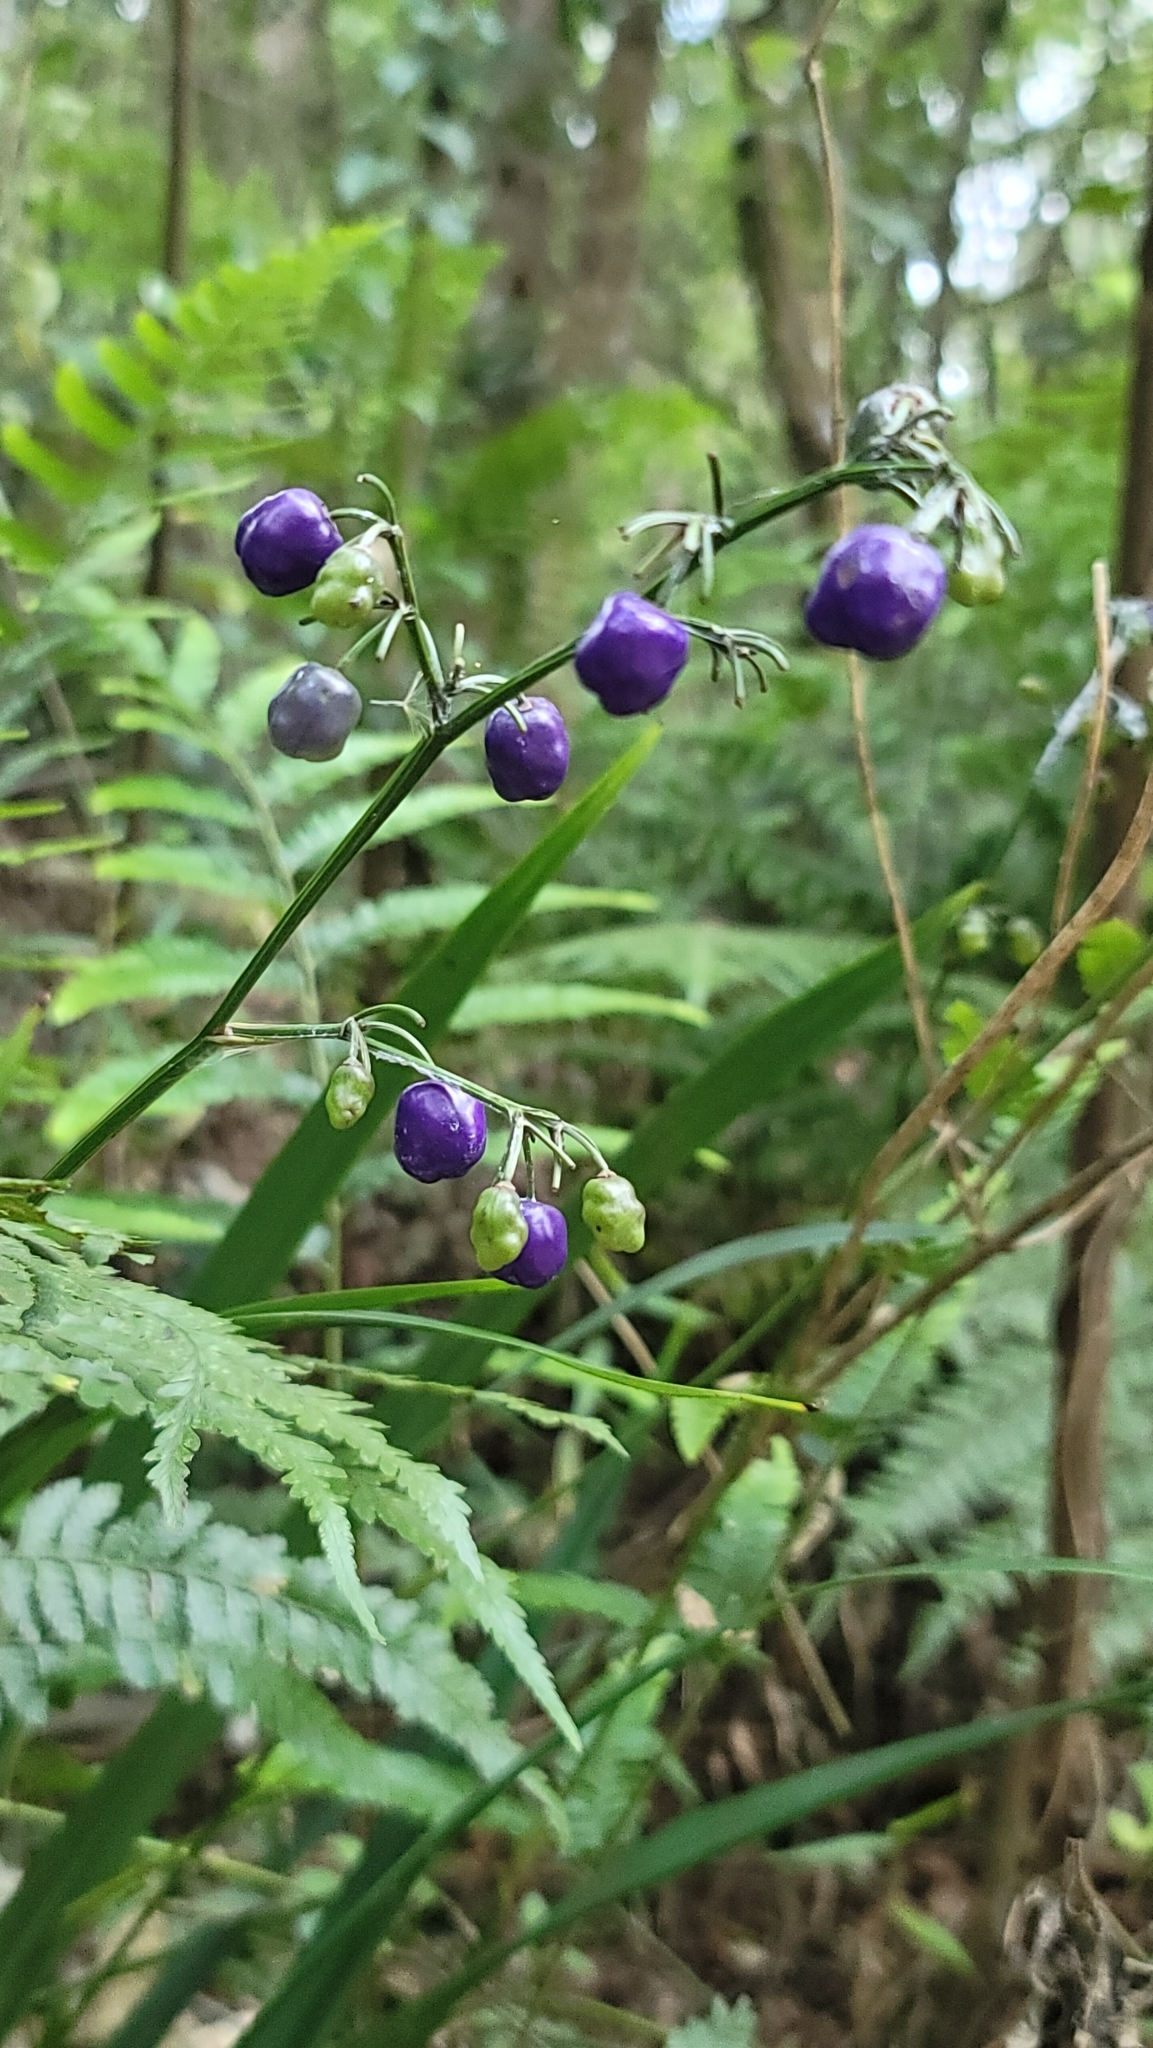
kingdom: Plantae
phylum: Tracheophyta
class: Liliopsida
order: Asparagales
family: Asphodelaceae
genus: Dianella
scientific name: Dianella ensifolia
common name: New zealand lilyplant
